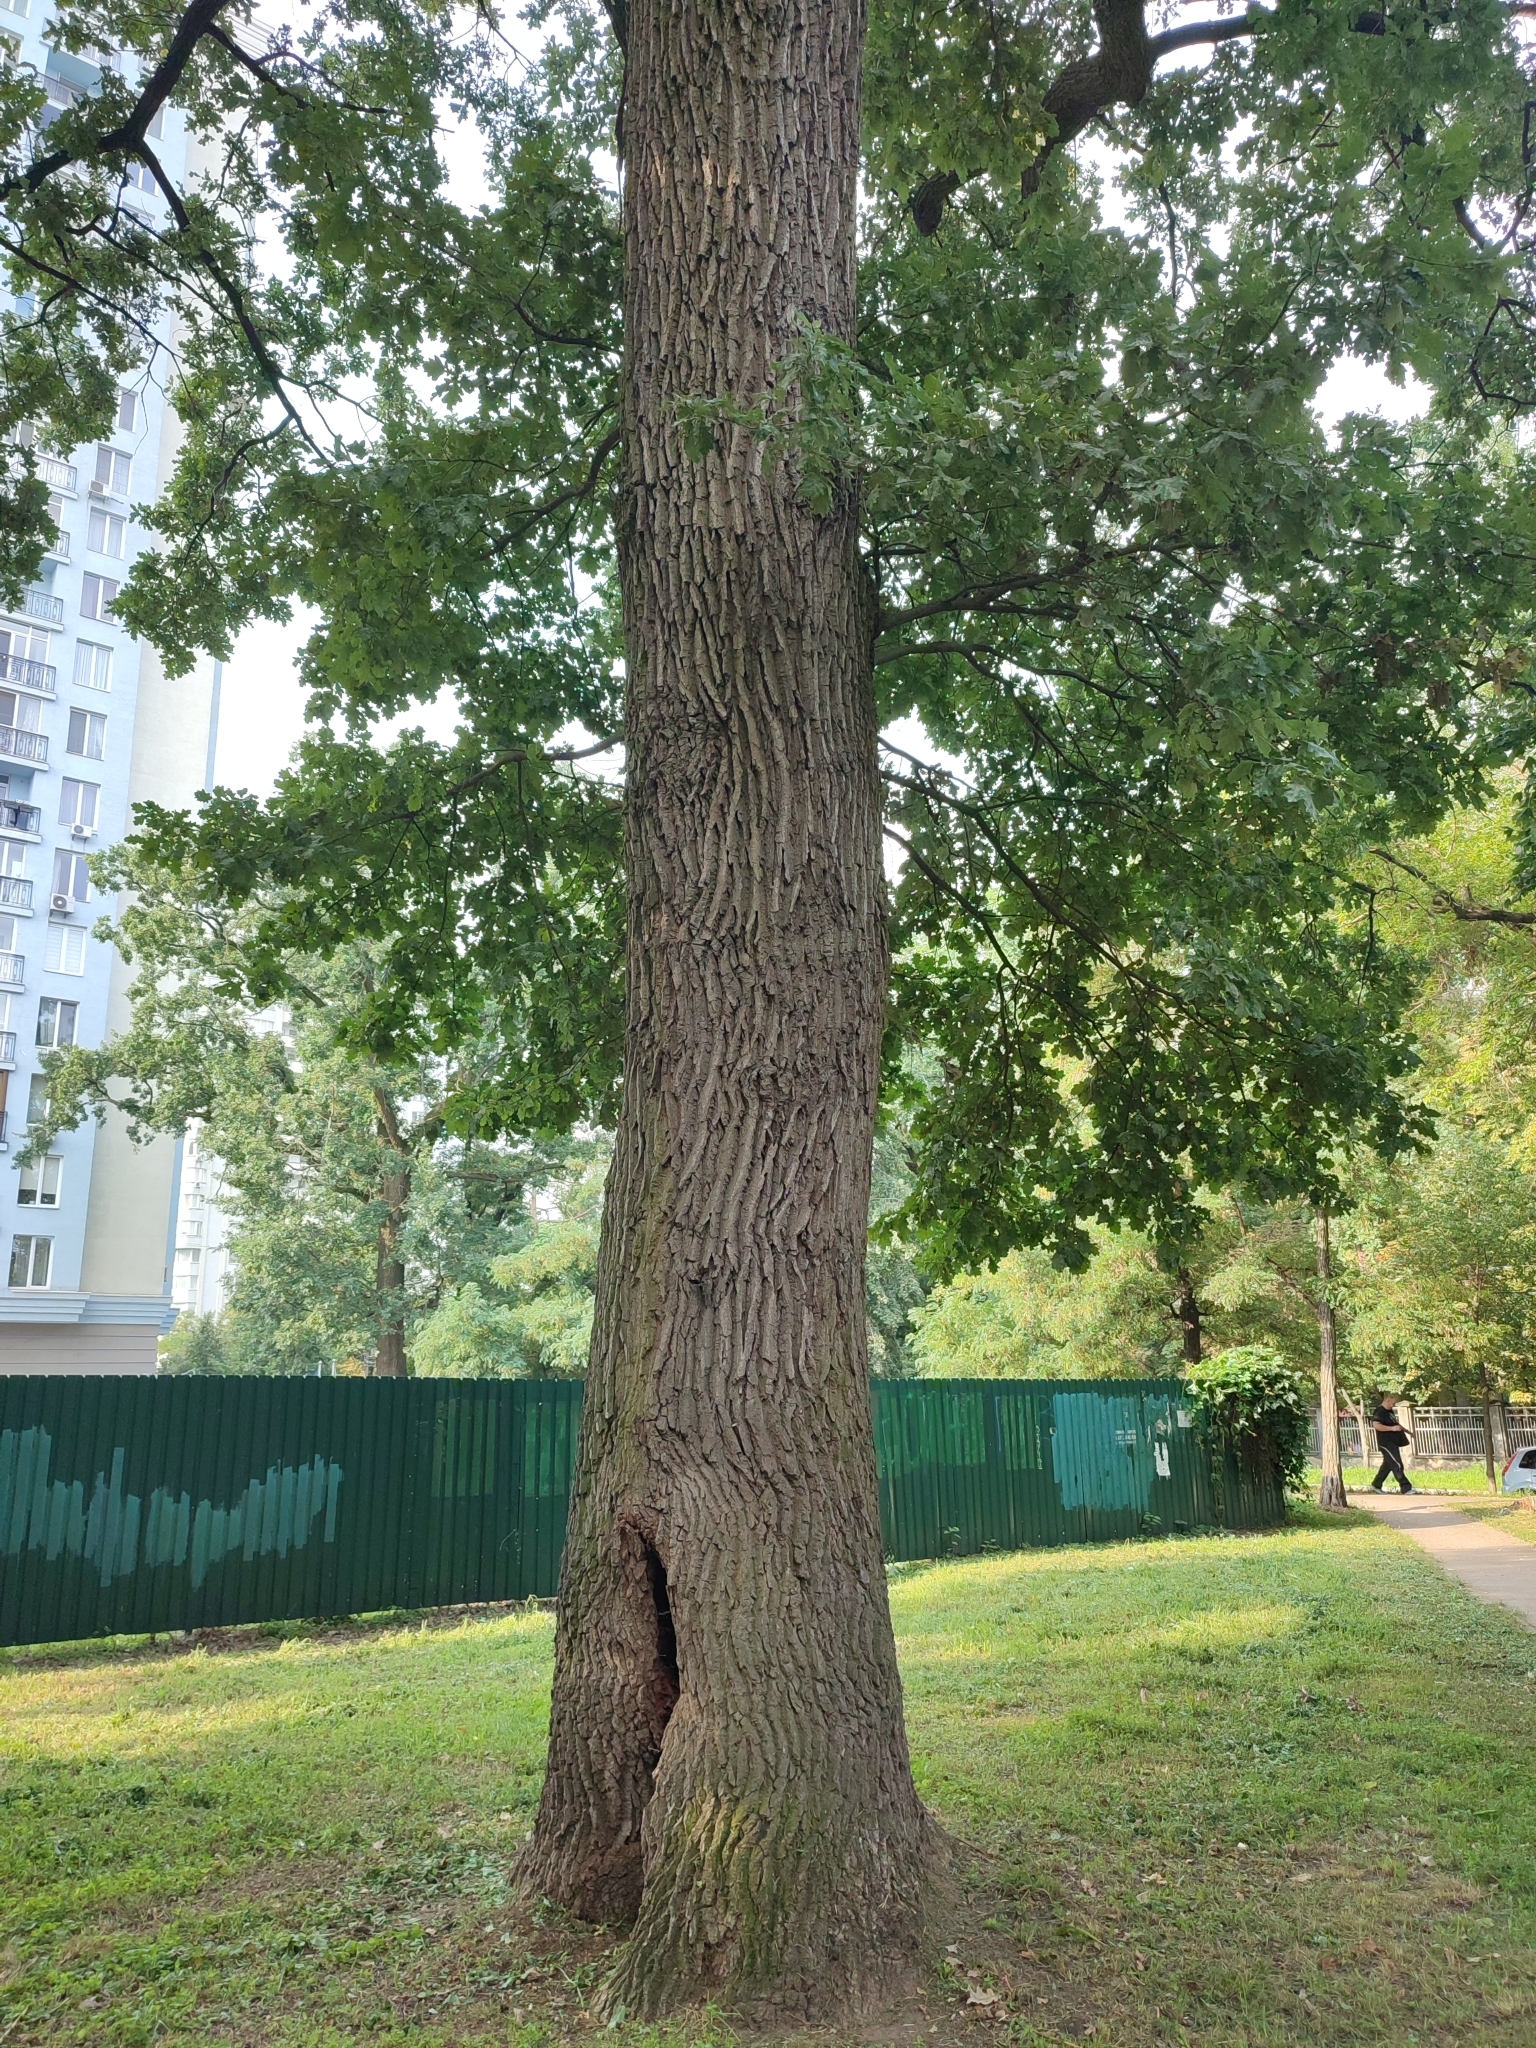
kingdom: Plantae
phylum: Tracheophyta
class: Magnoliopsida
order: Fagales
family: Fagaceae
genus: Quercus
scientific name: Quercus robur
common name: Pedunculate oak
